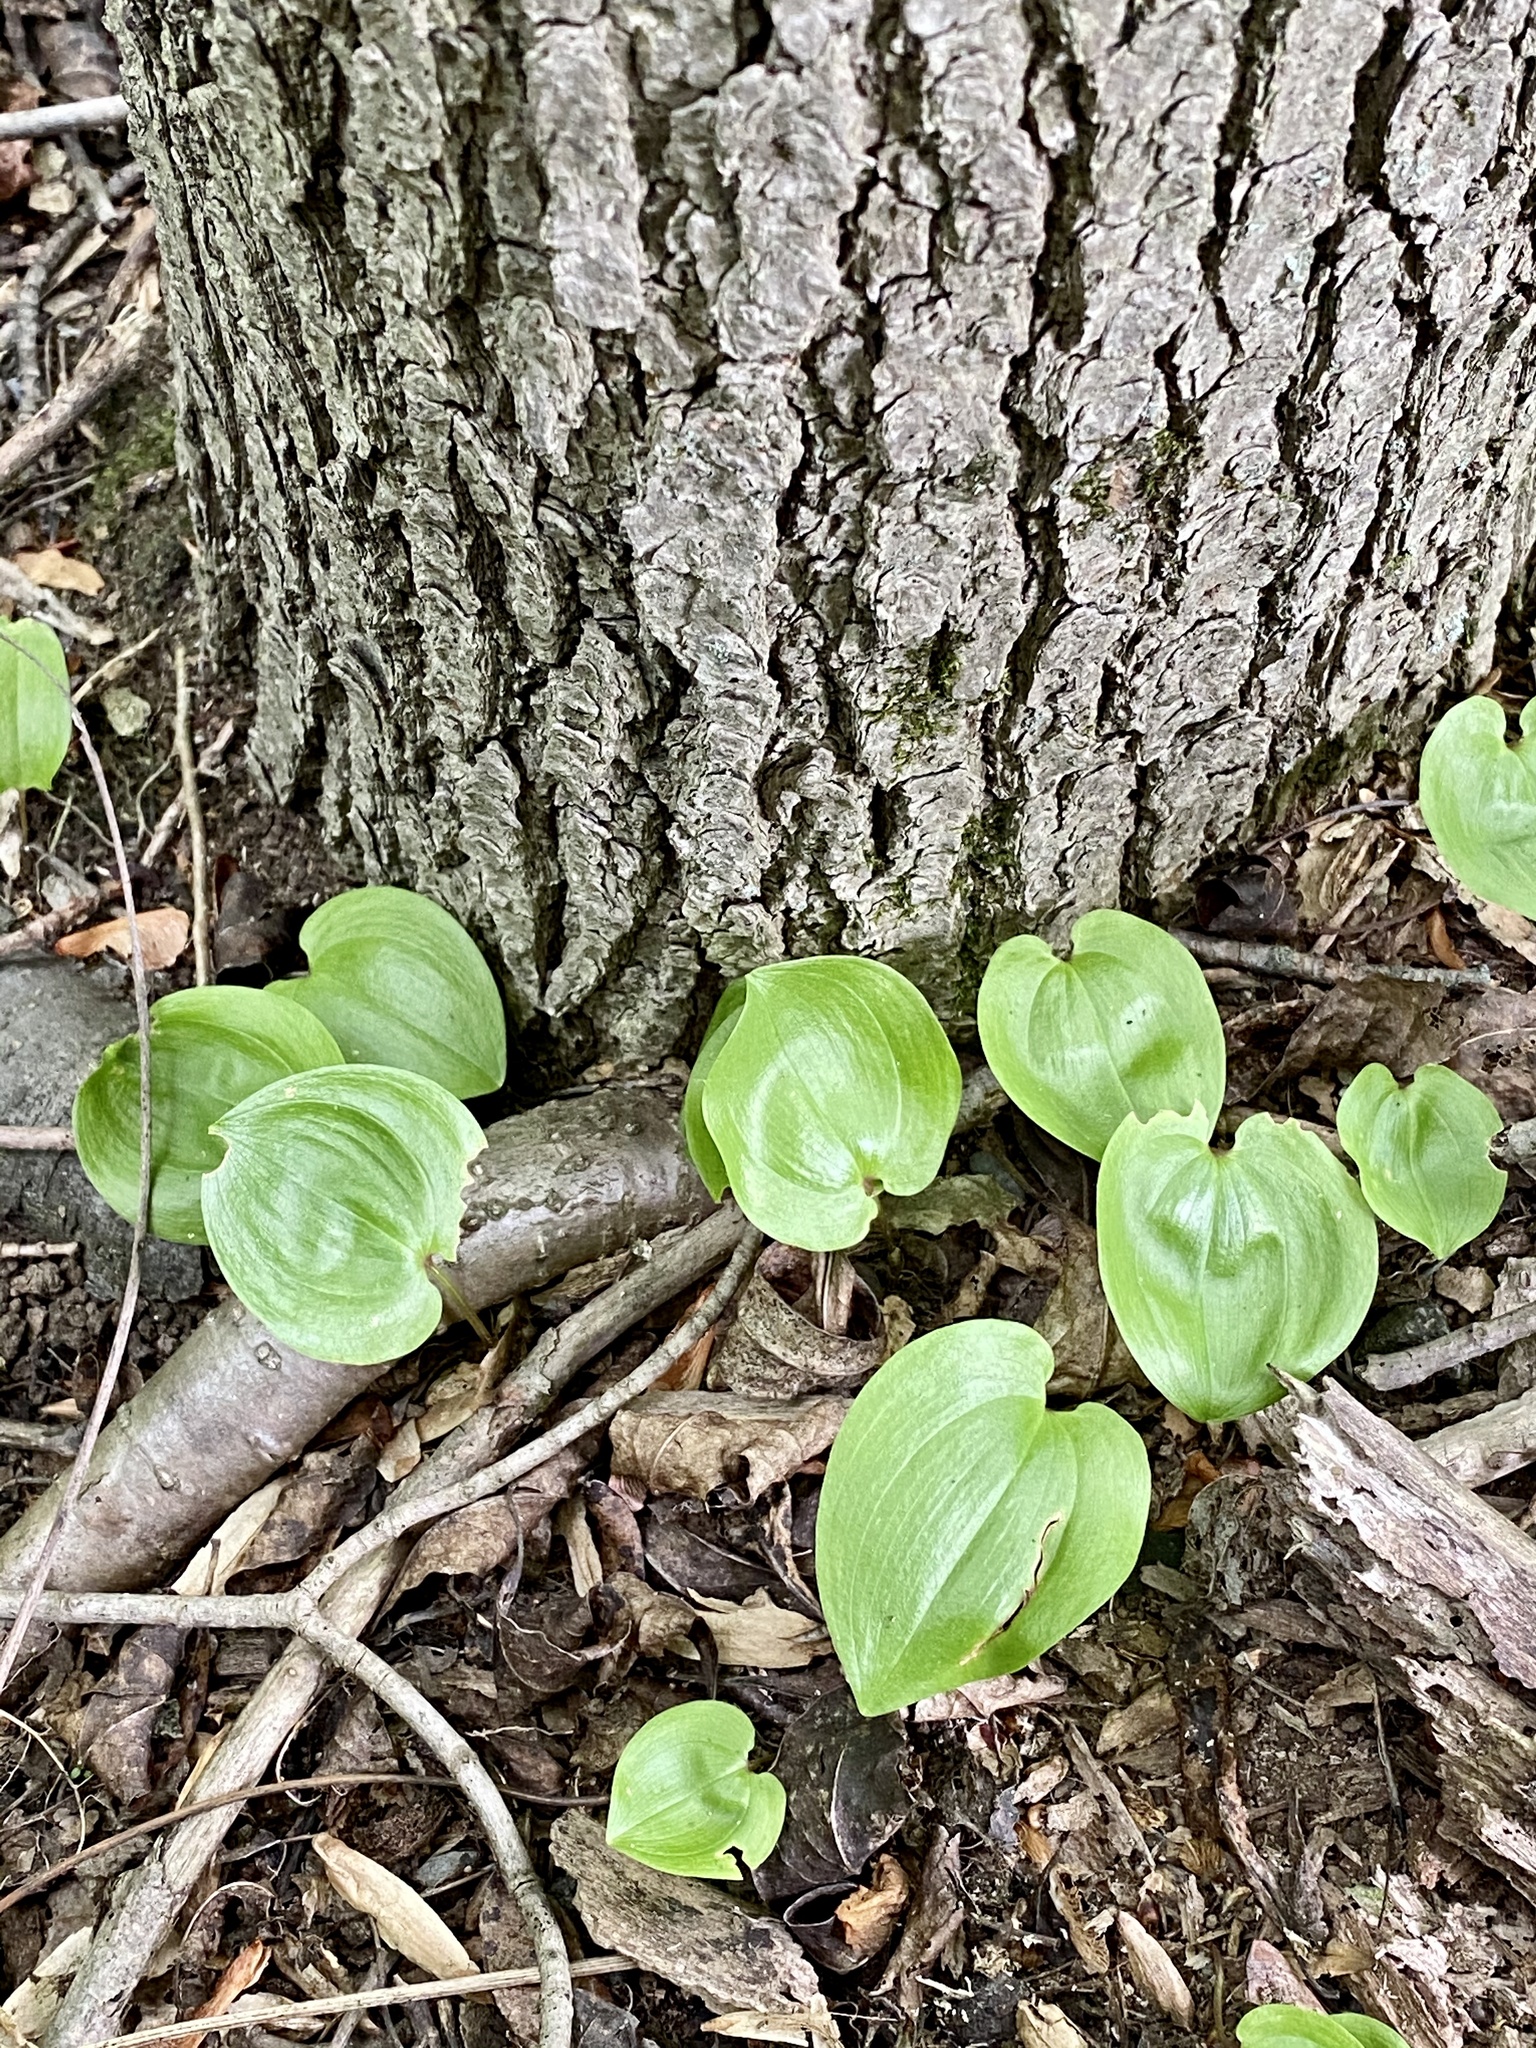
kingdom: Plantae
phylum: Tracheophyta
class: Liliopsida
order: Asparagales
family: Asparagaceae
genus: Maianthemum
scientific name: Maianthemum canadense
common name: False lily-of-the-valley
